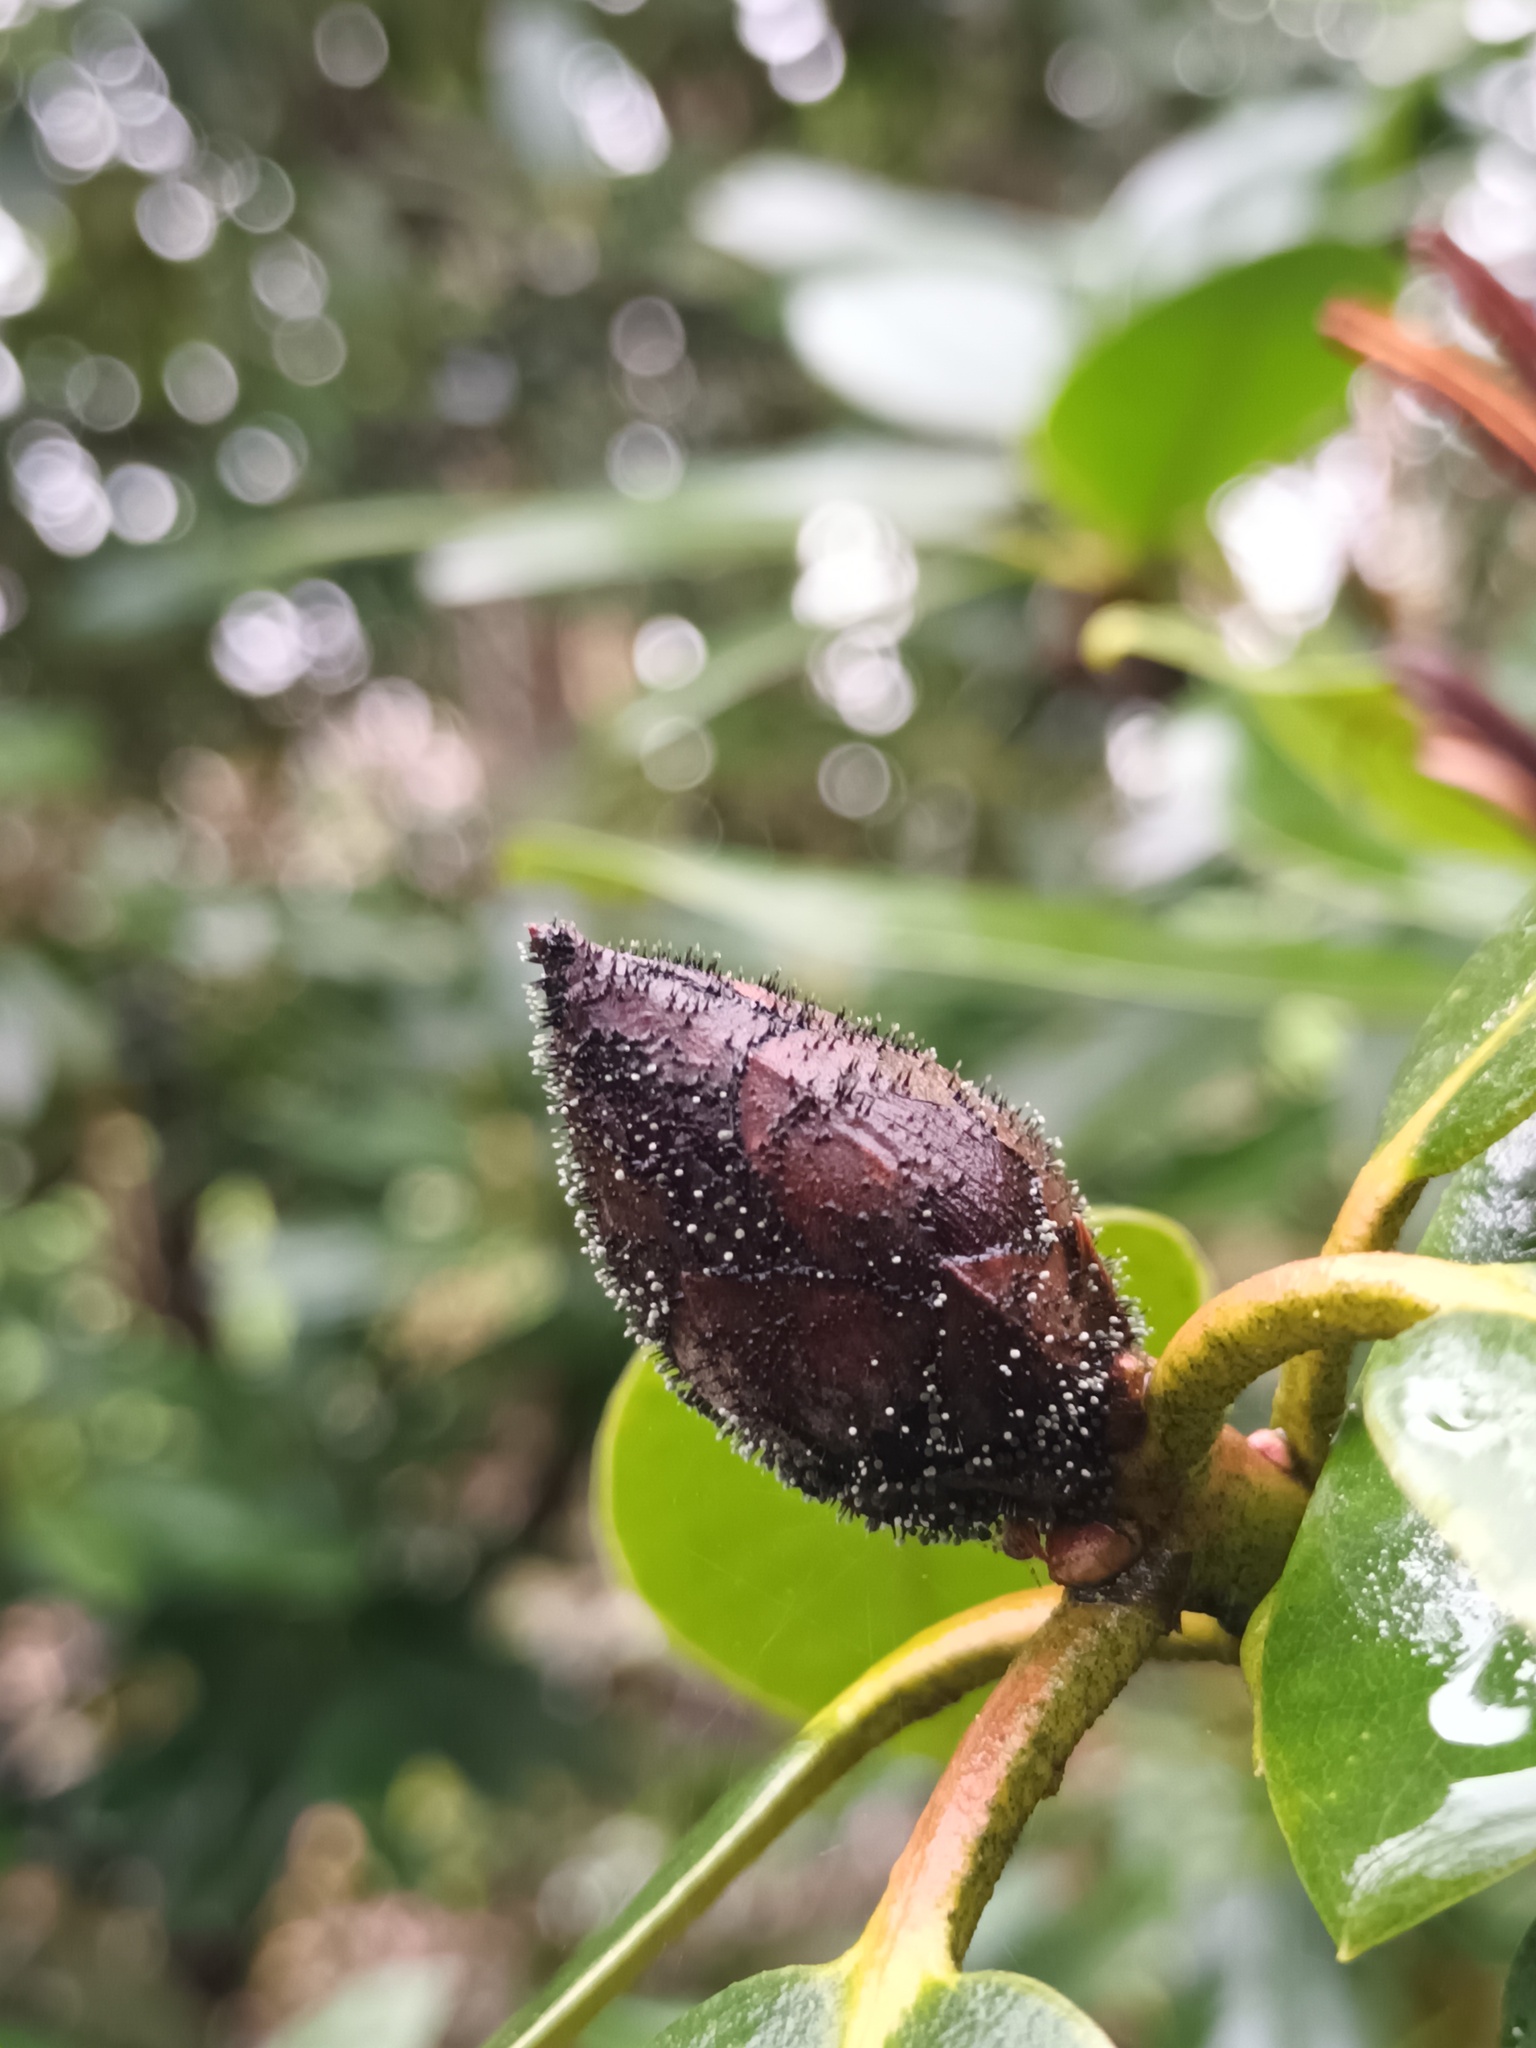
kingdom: Fungi
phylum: Ascomycota
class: Dothideomycetes
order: Pleosporales
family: Melanommataceae
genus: Seifertia
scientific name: Seifertia azaleae
